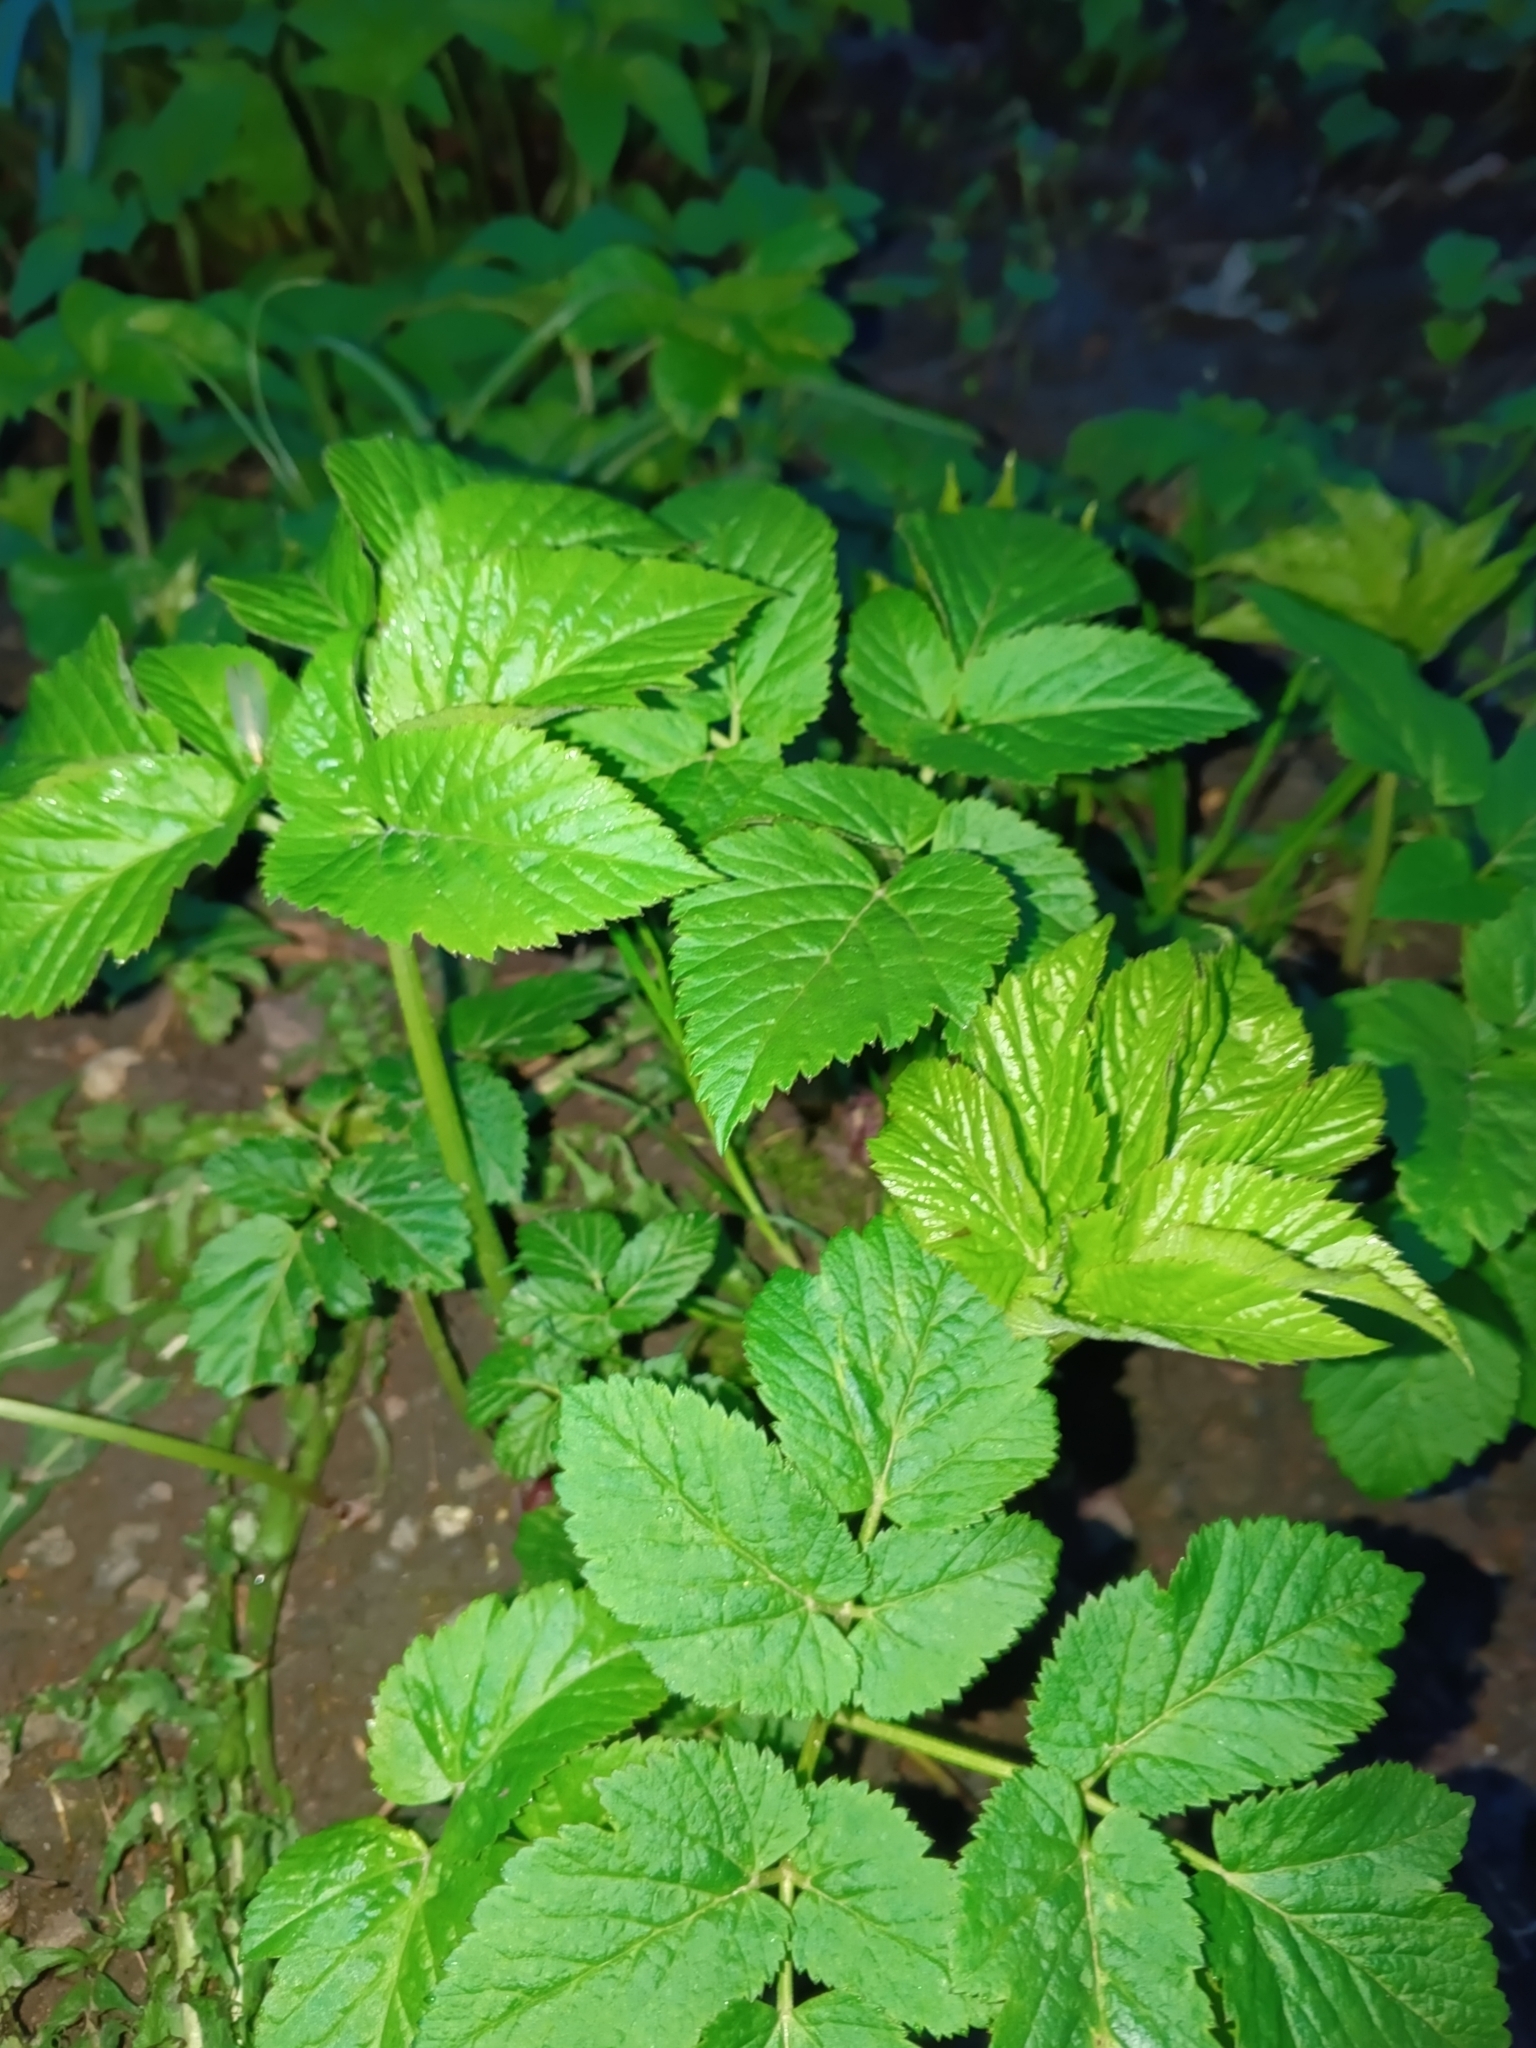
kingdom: Plantae
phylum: Tracheophyta
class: Magnoliopsida
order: Apiales
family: Apiaceae
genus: Aegopodium
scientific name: Aegopodium podagraria
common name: Ground-elder
